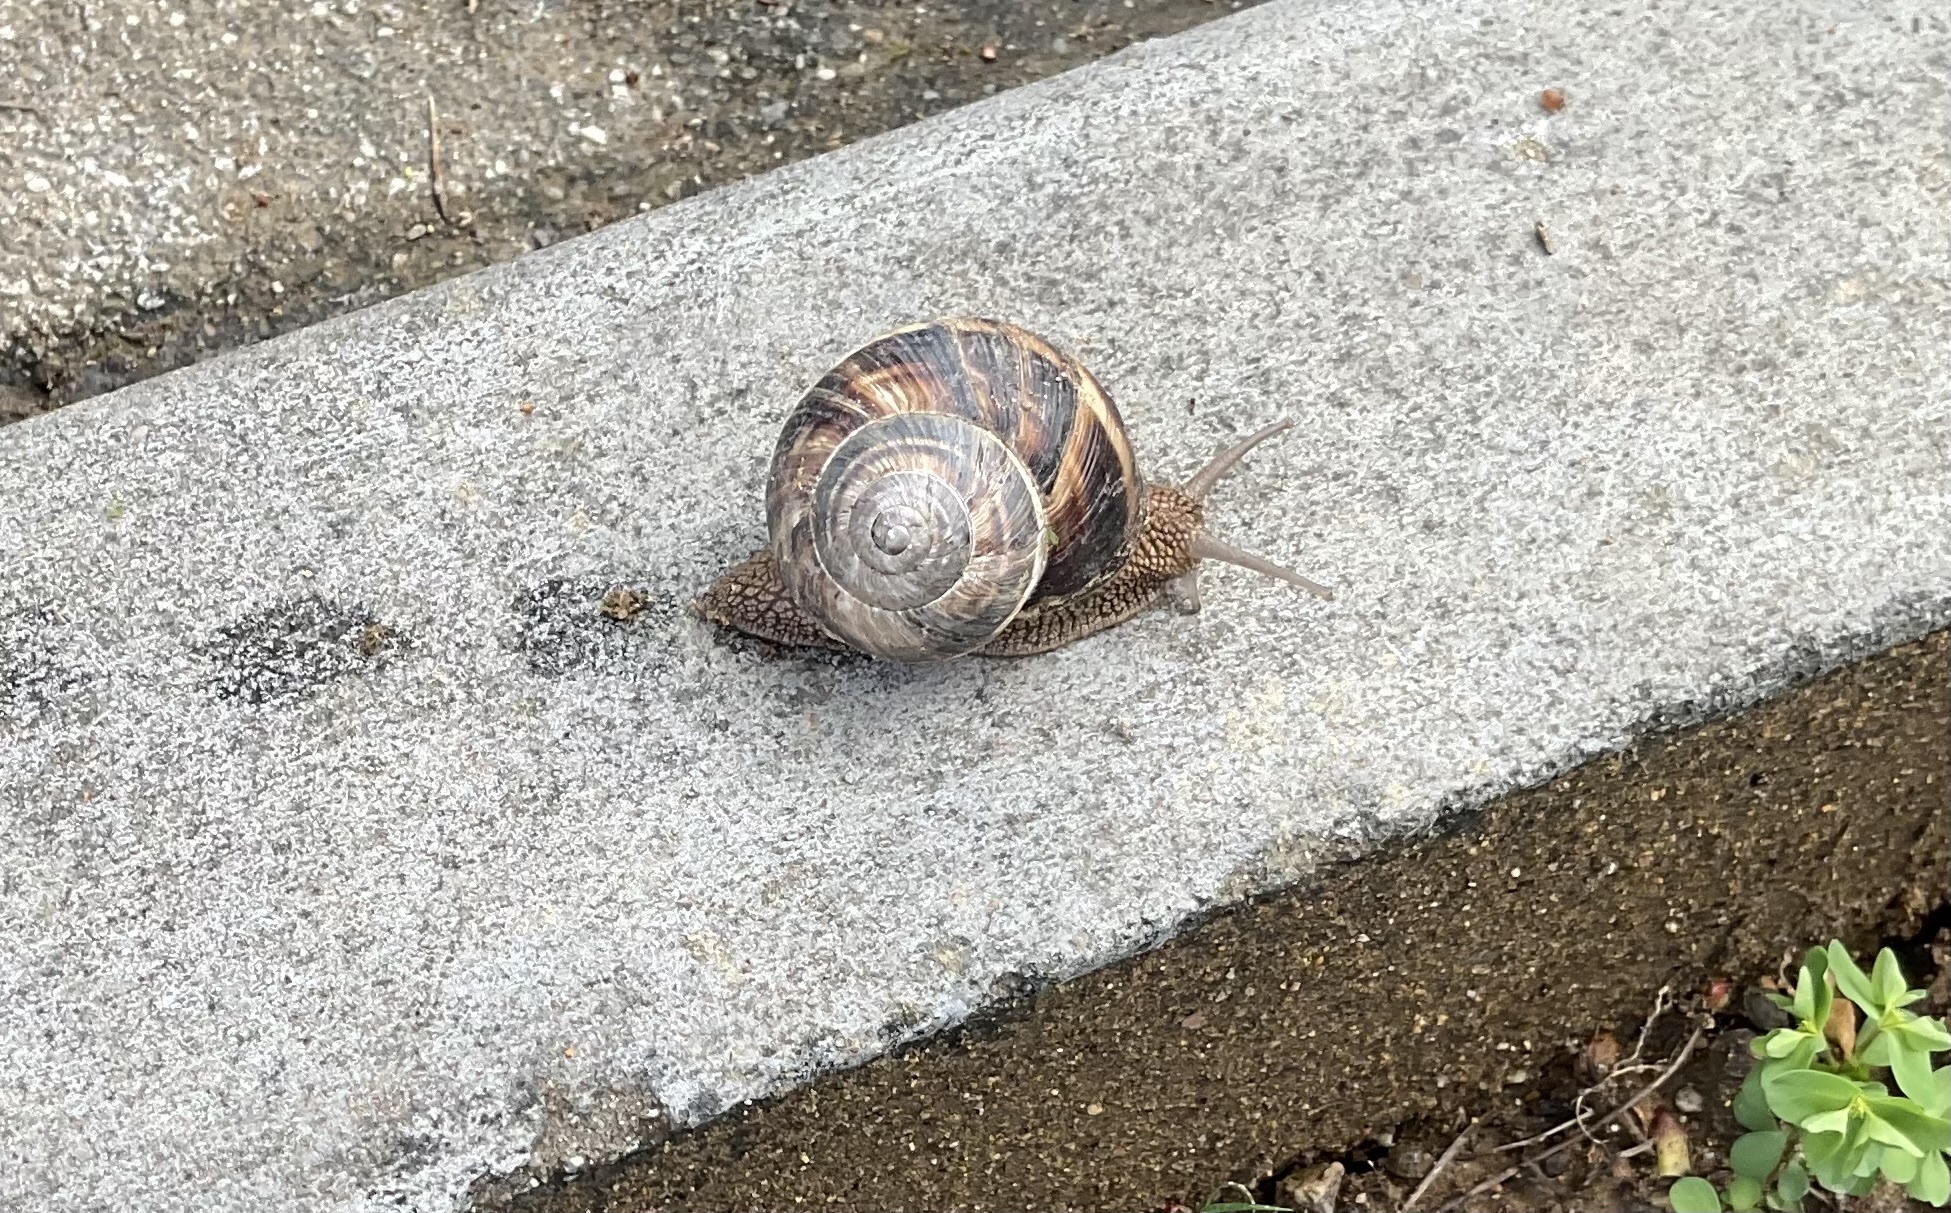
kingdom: Animalia
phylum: Mollusca
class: Gastropoda
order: Stylommatophora
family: Helicidae
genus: Helix
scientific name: Helix lucorum
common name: Turkish snail
